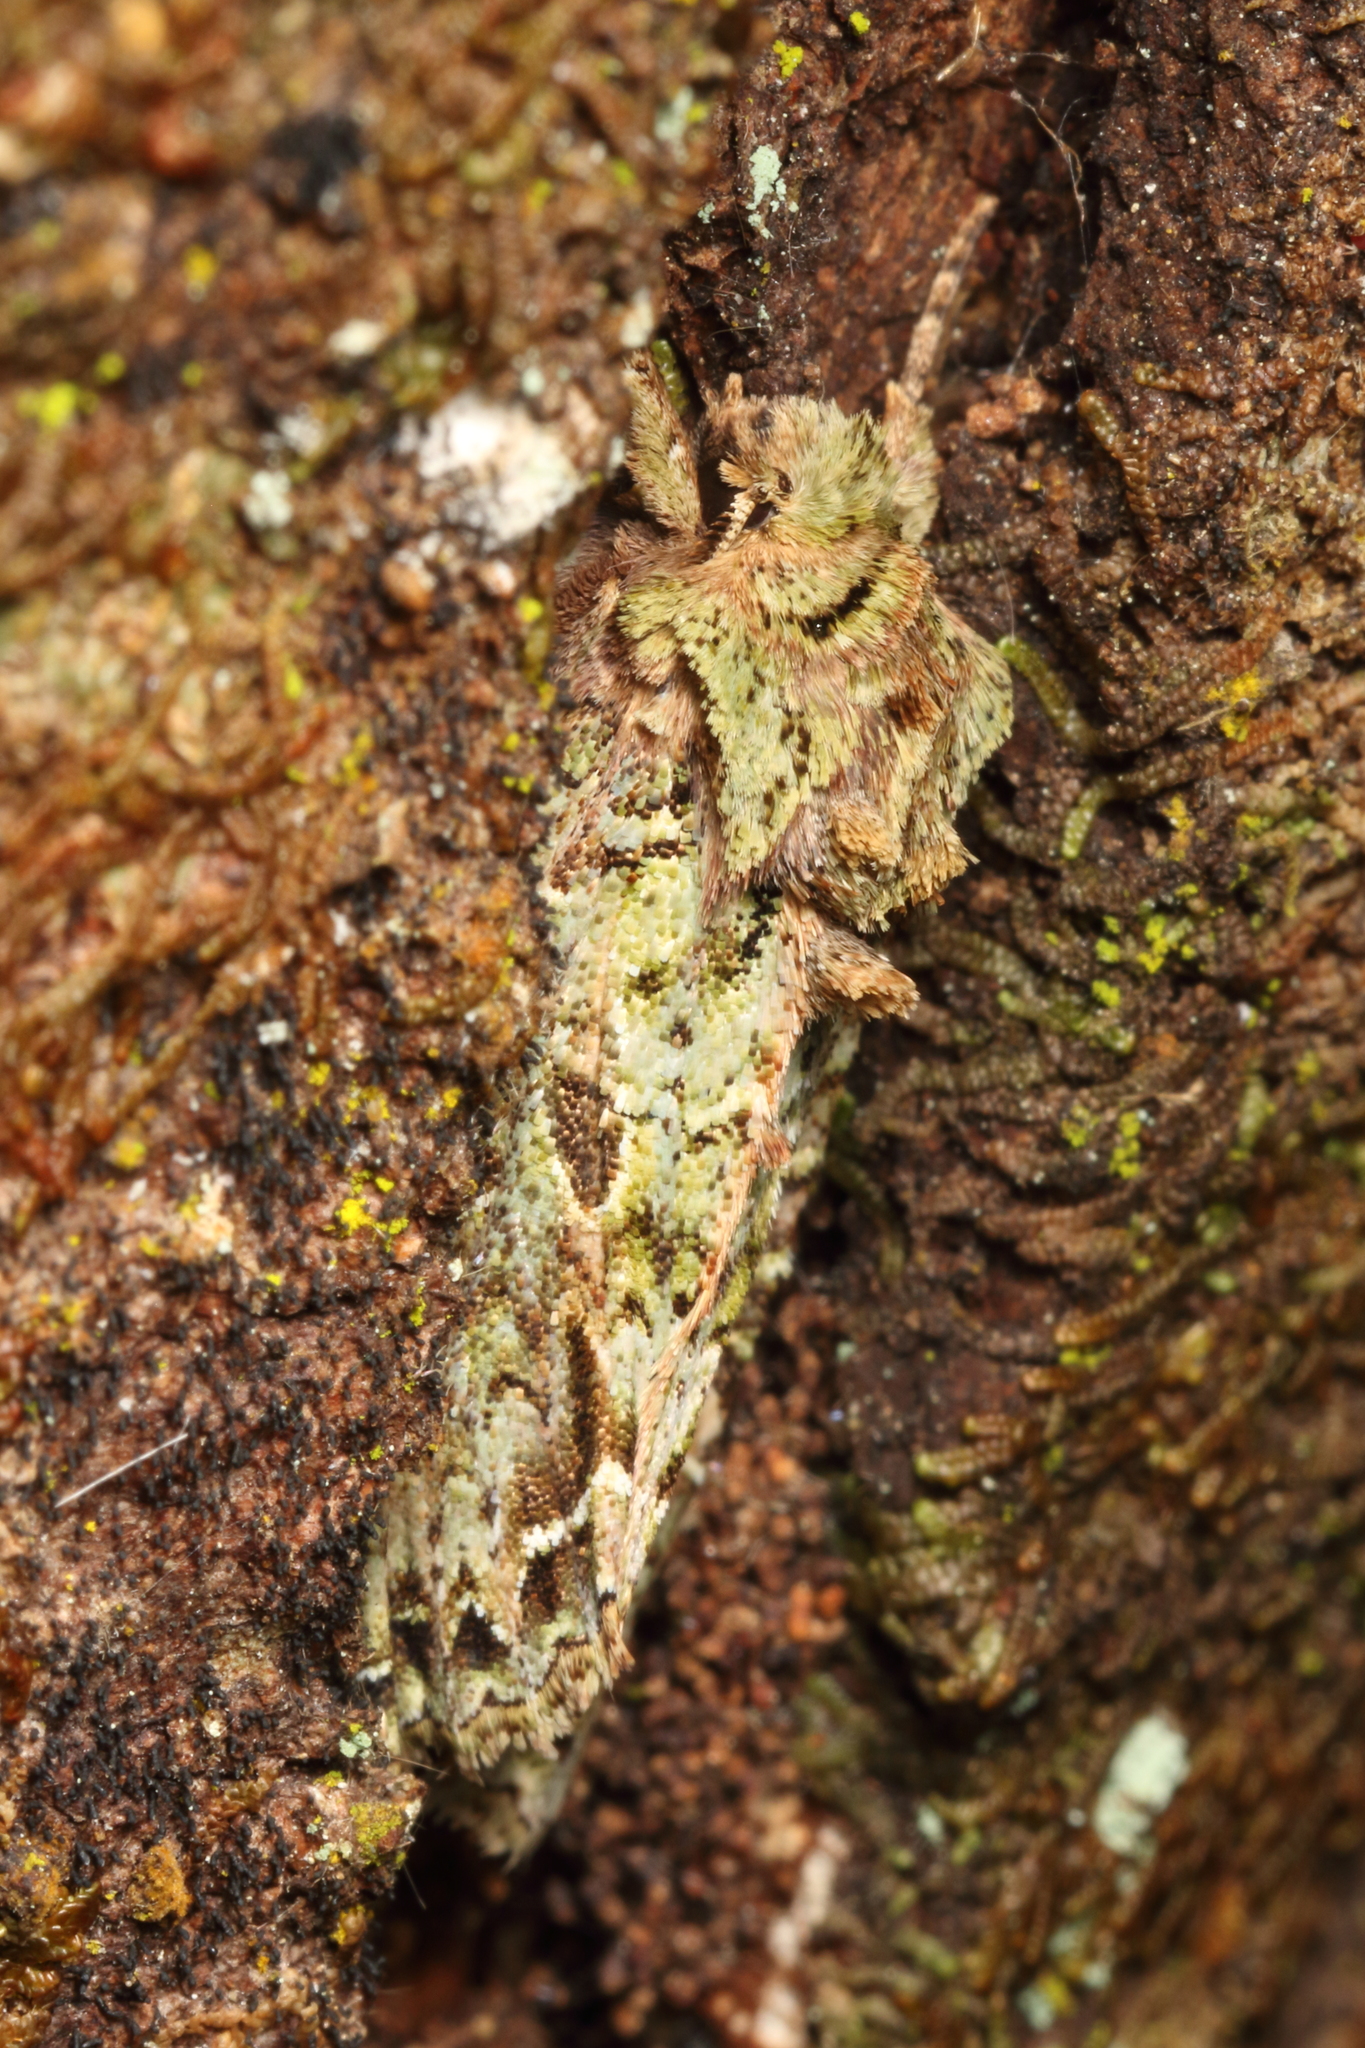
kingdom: Animalia
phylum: Arthropoda
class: Insecta
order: Lepidoptera
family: Noctuidae
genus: Ichneutica
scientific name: Ichneutica mutans
